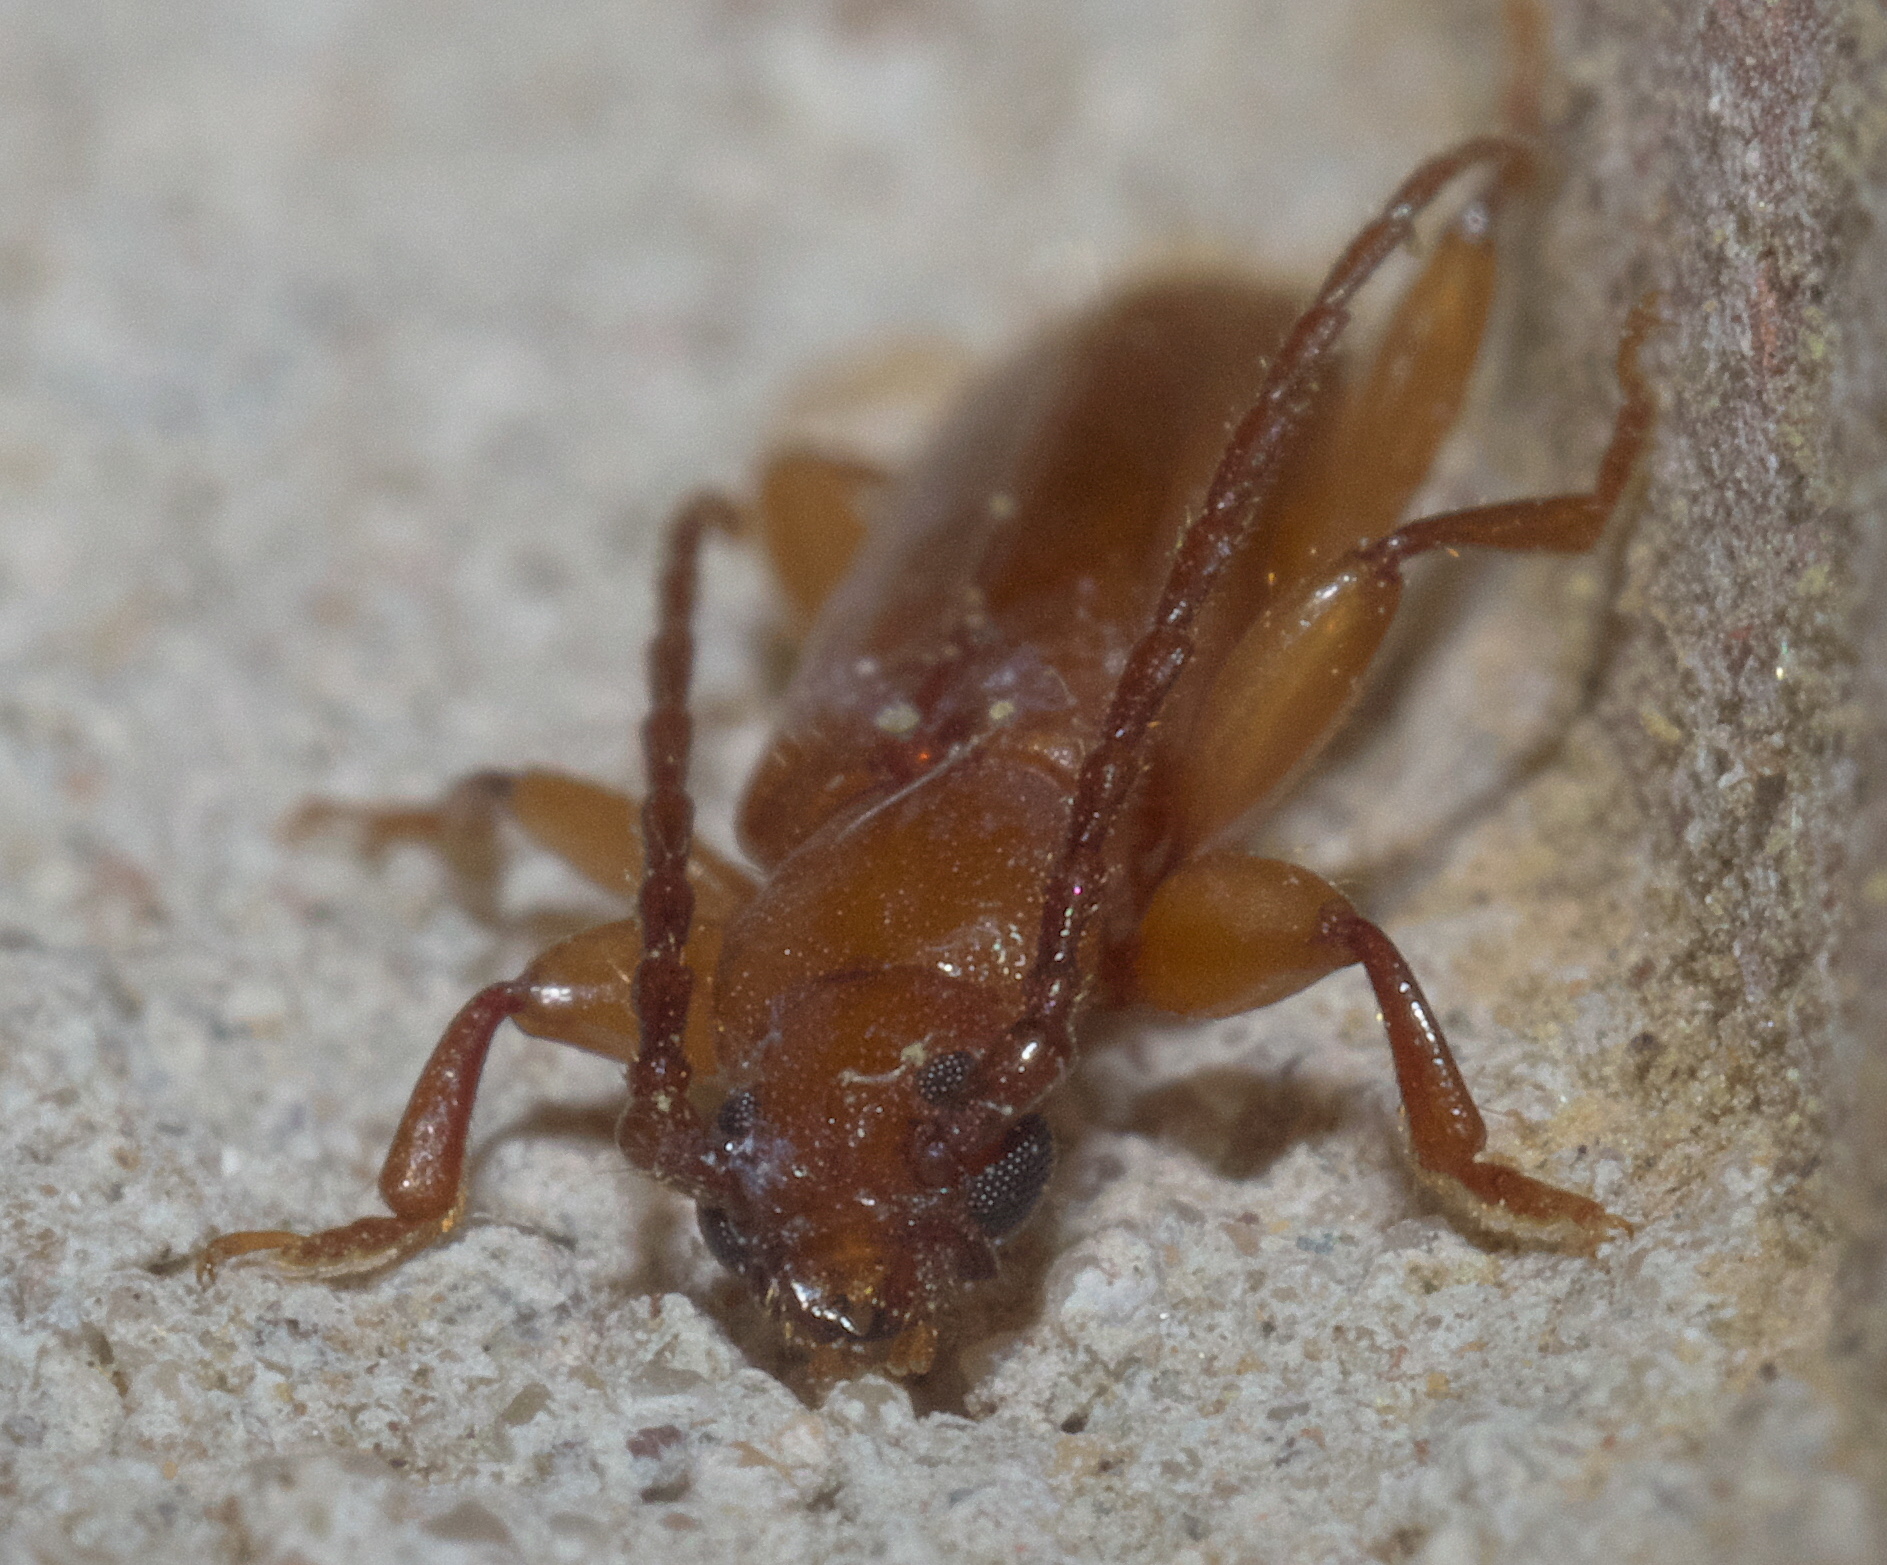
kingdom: Animalia
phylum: Arthropoda
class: Insecta
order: Coleoptera
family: Cerambycidae
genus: Smodicum
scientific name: Smodicum cucujiforme
